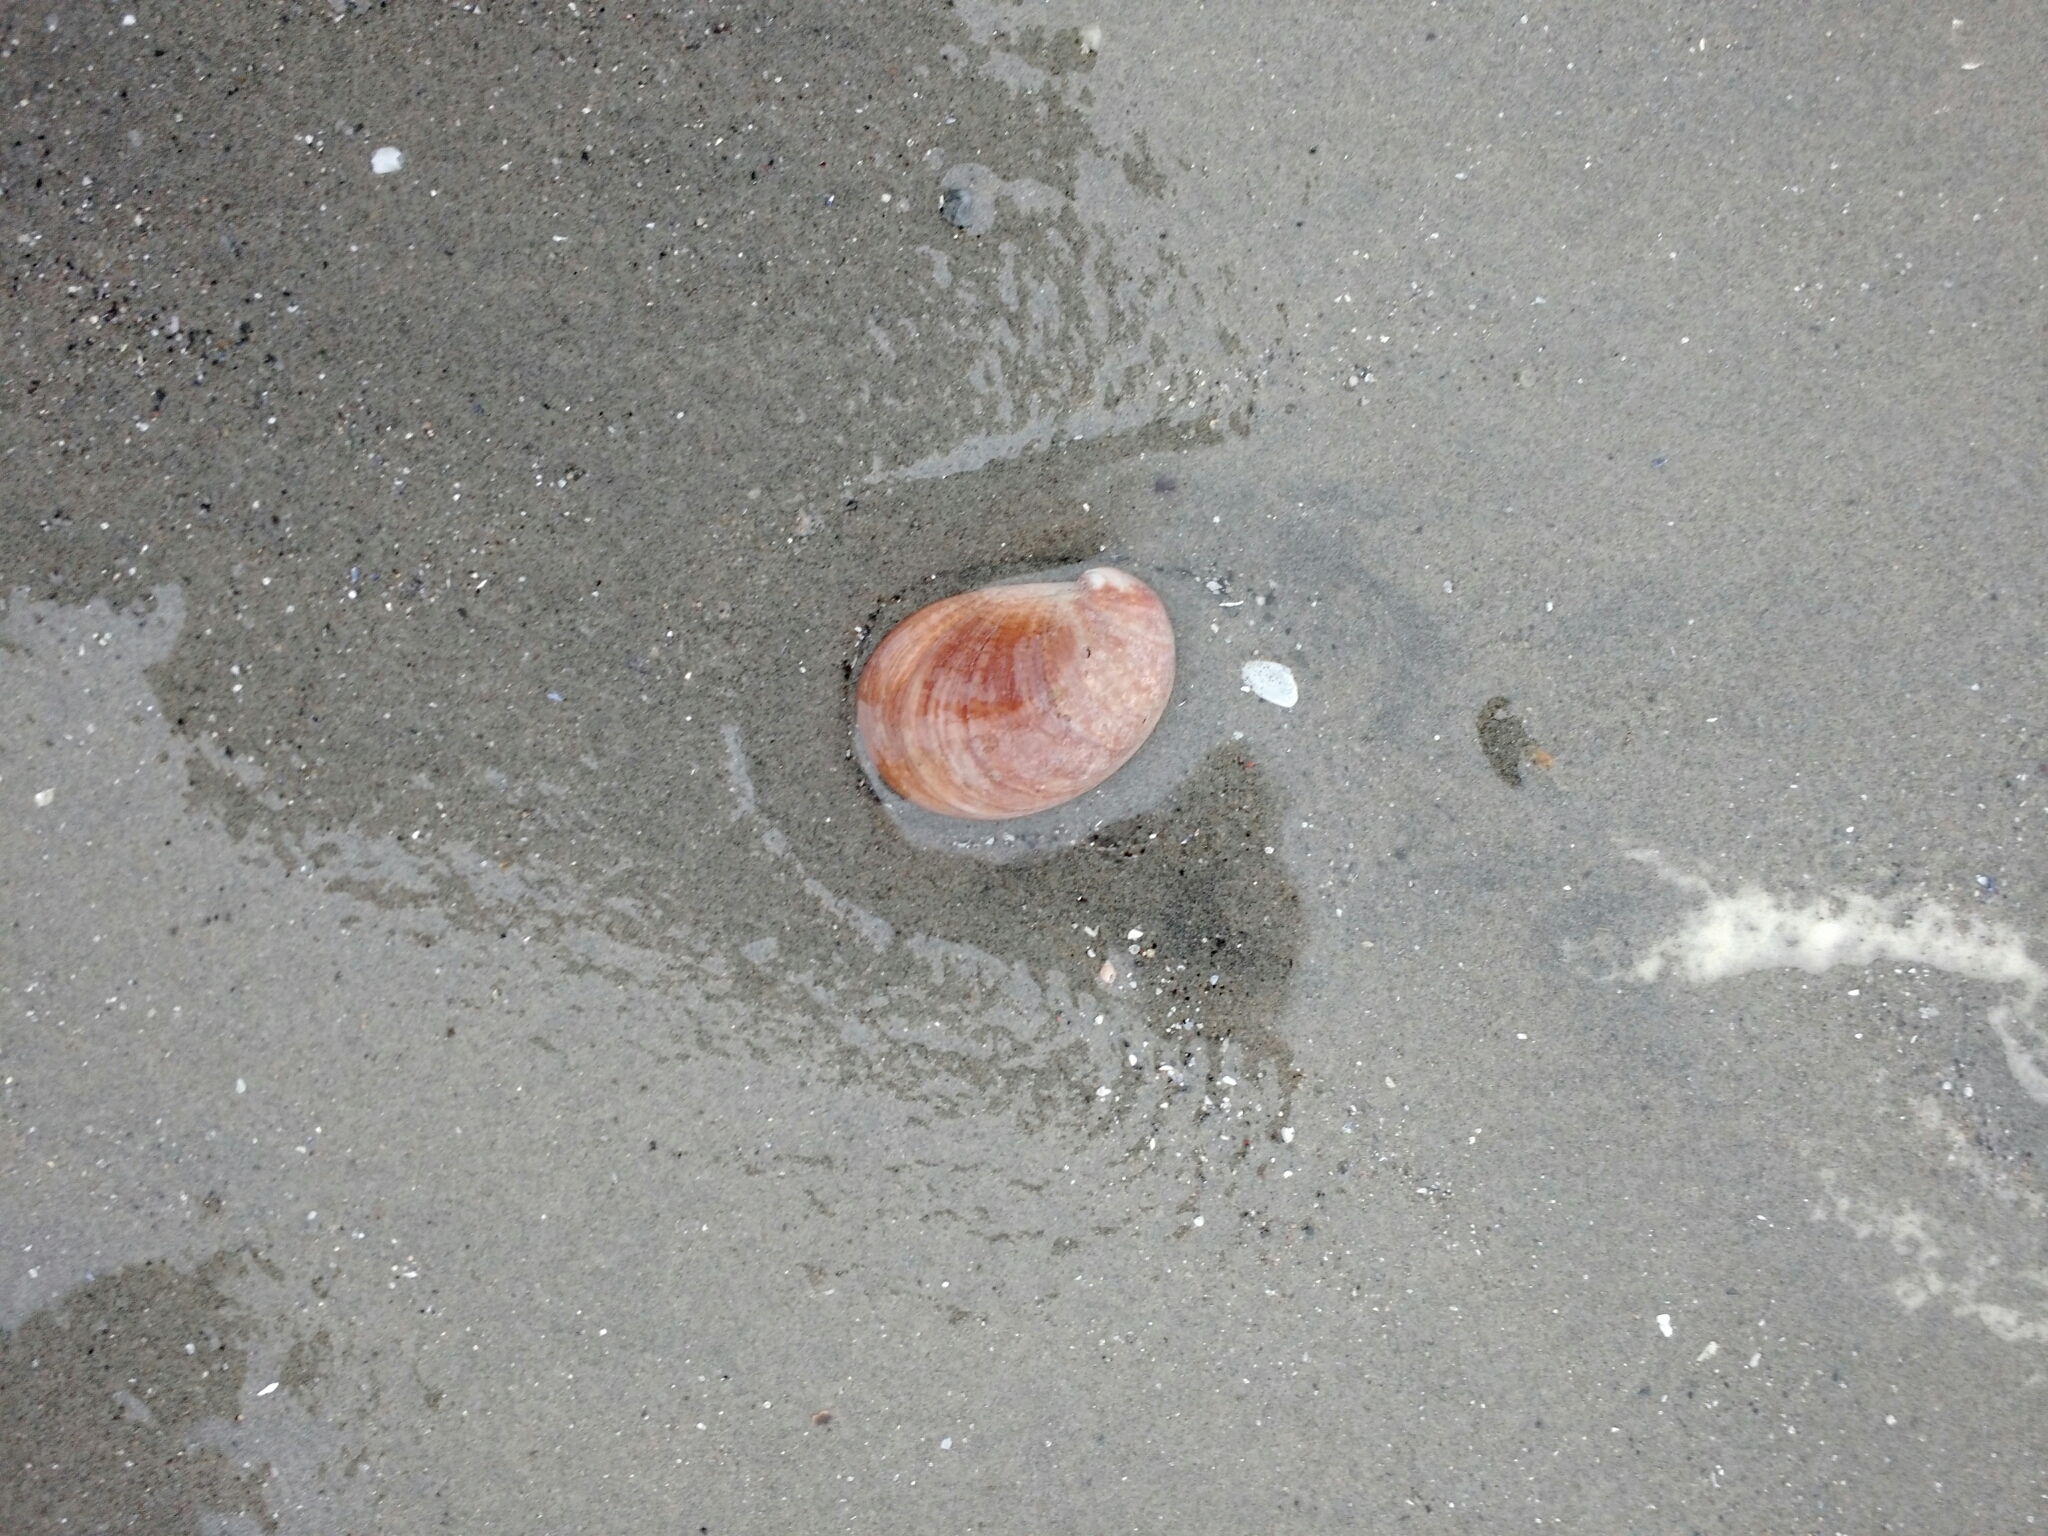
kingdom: Animalia
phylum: Mollusca
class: Gastropoda
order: Littorinimorpha
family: Calyptraeidae
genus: Crepidula
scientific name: Crepidula fornicata
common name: Slipper limpet
